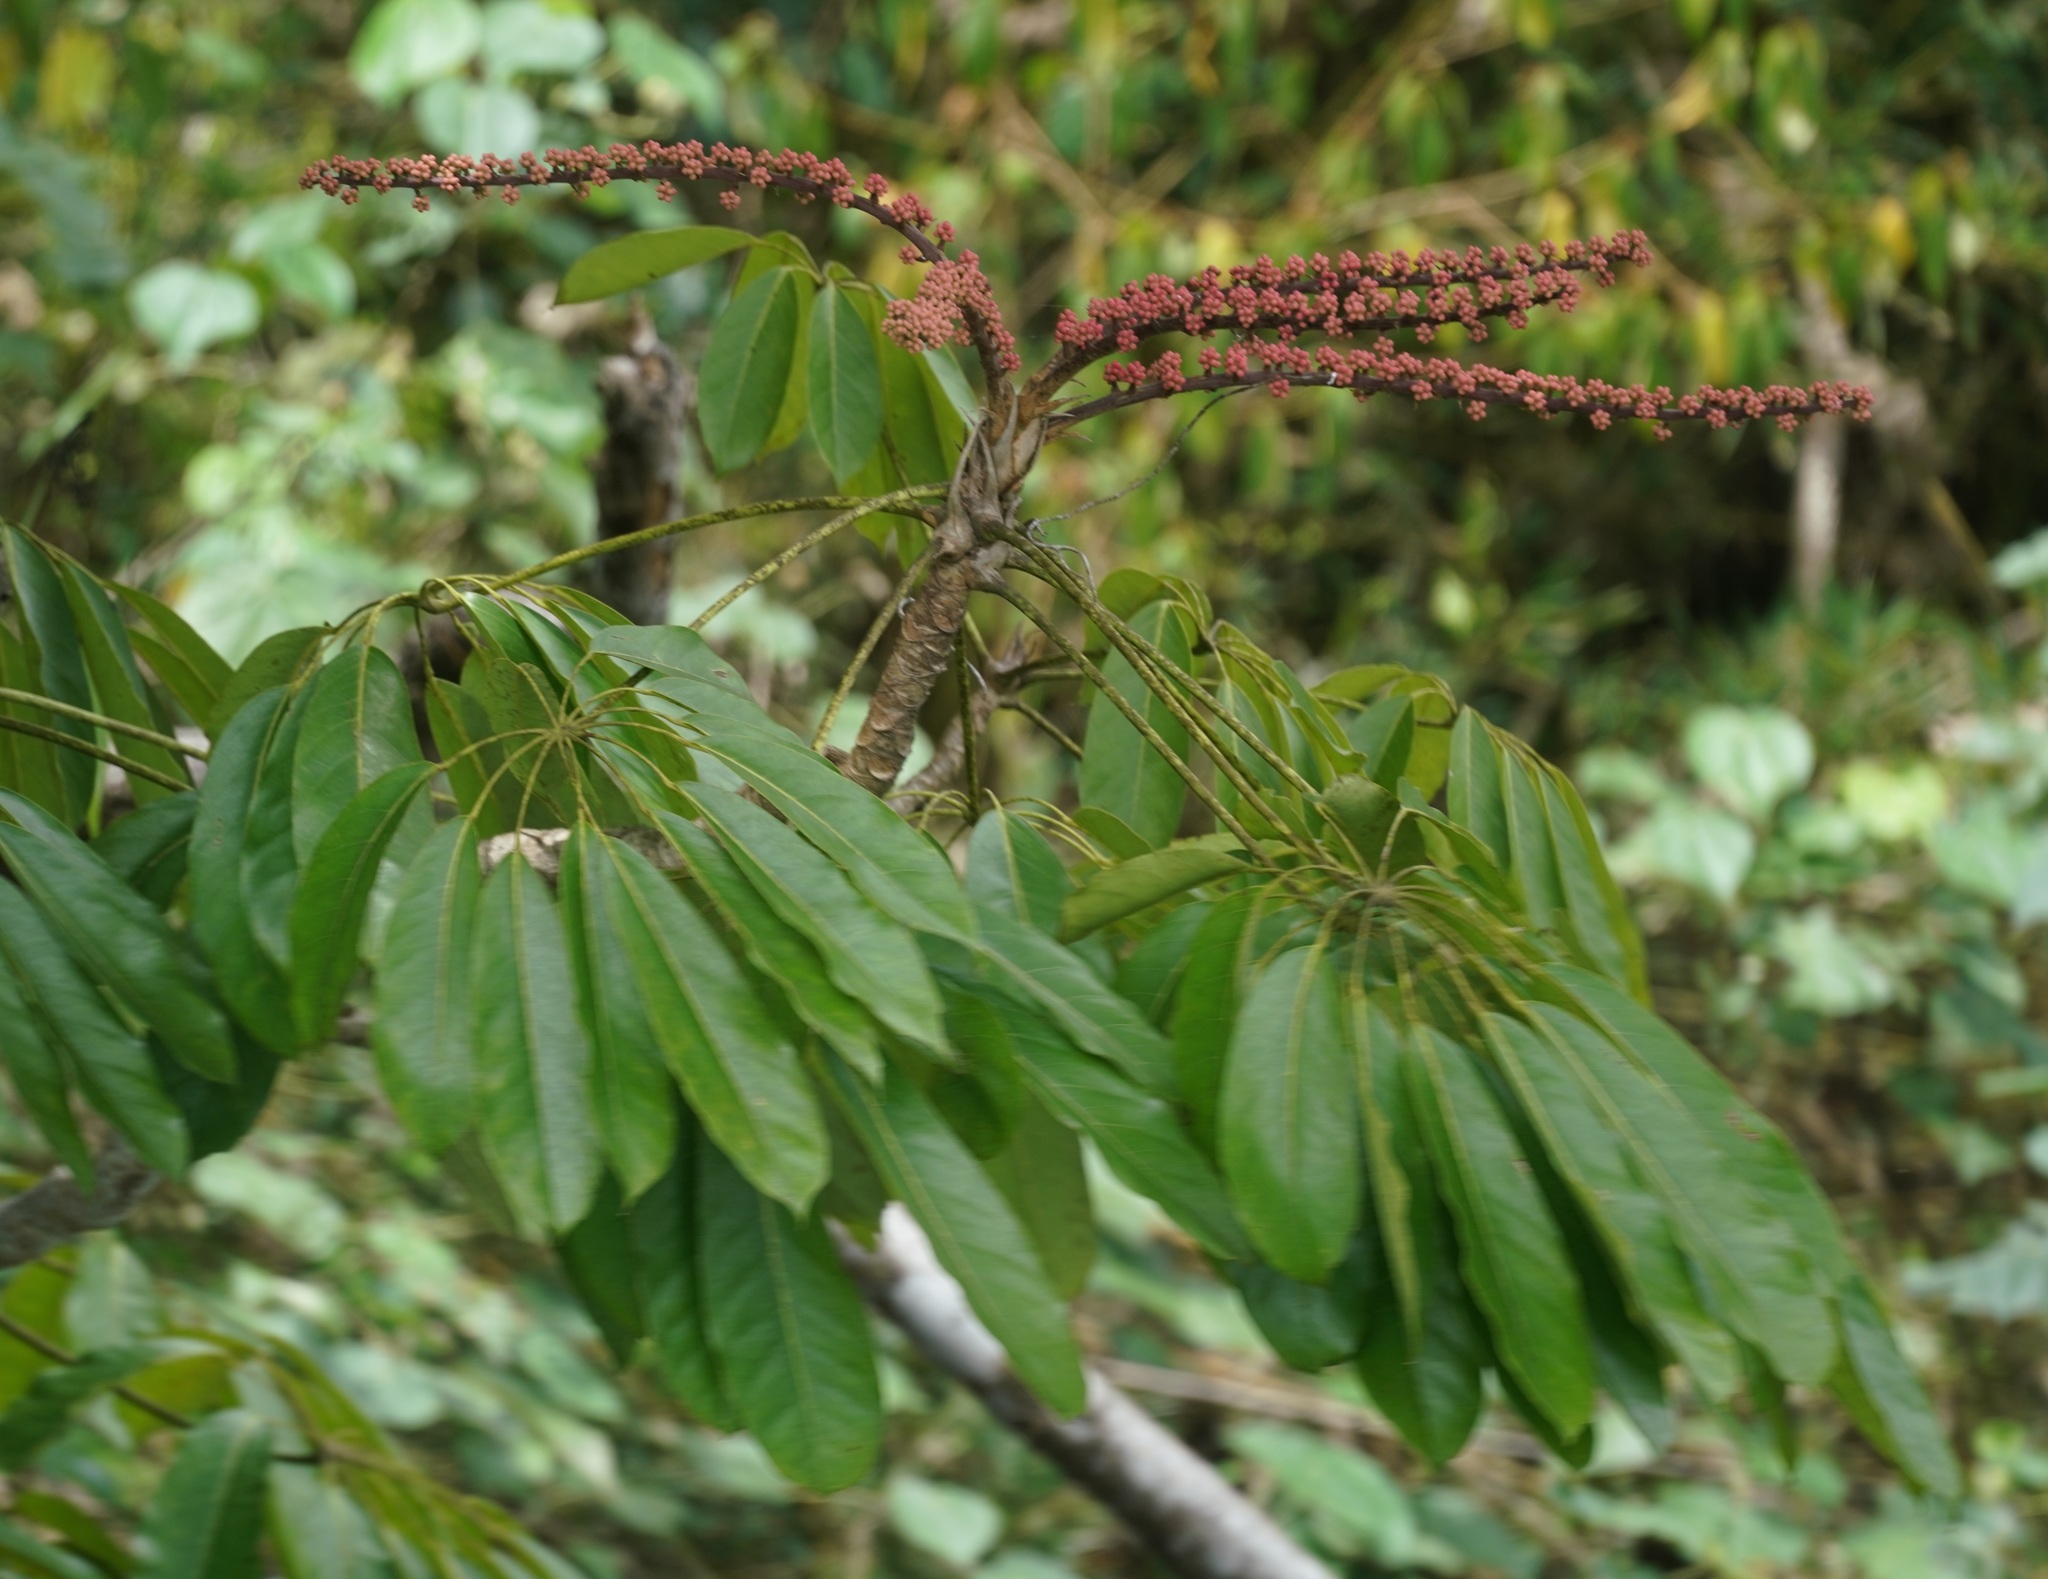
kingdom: Plantae
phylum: Tracheophyta
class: Magnoliopsida
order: Apiales
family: Araliaceae
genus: Heptapleurum
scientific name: Heptapleurum actinophyllum
